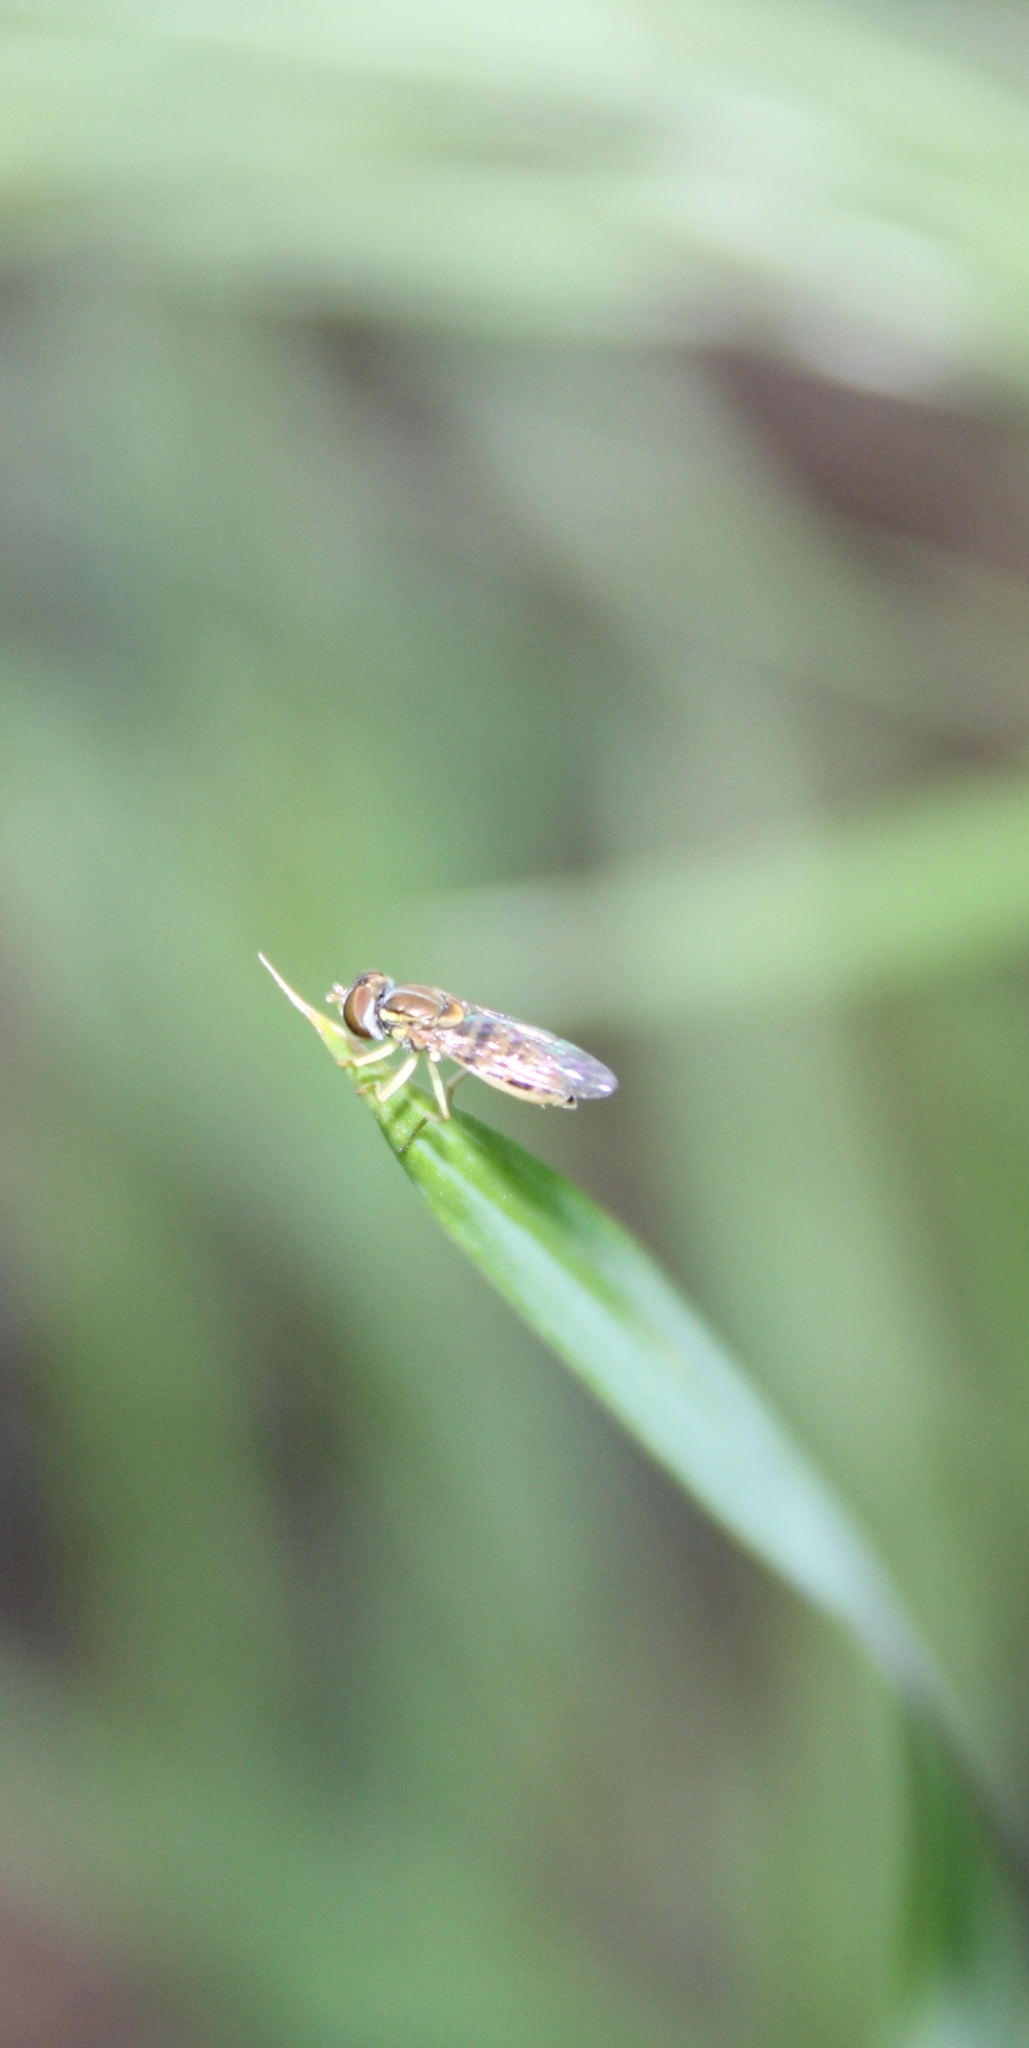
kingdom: Animalia
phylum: Arthropoda
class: Insecta
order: Diptera
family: Syrphidae
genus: Toxomerus
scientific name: Toxomerus marginatus
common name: Syrphid fly
